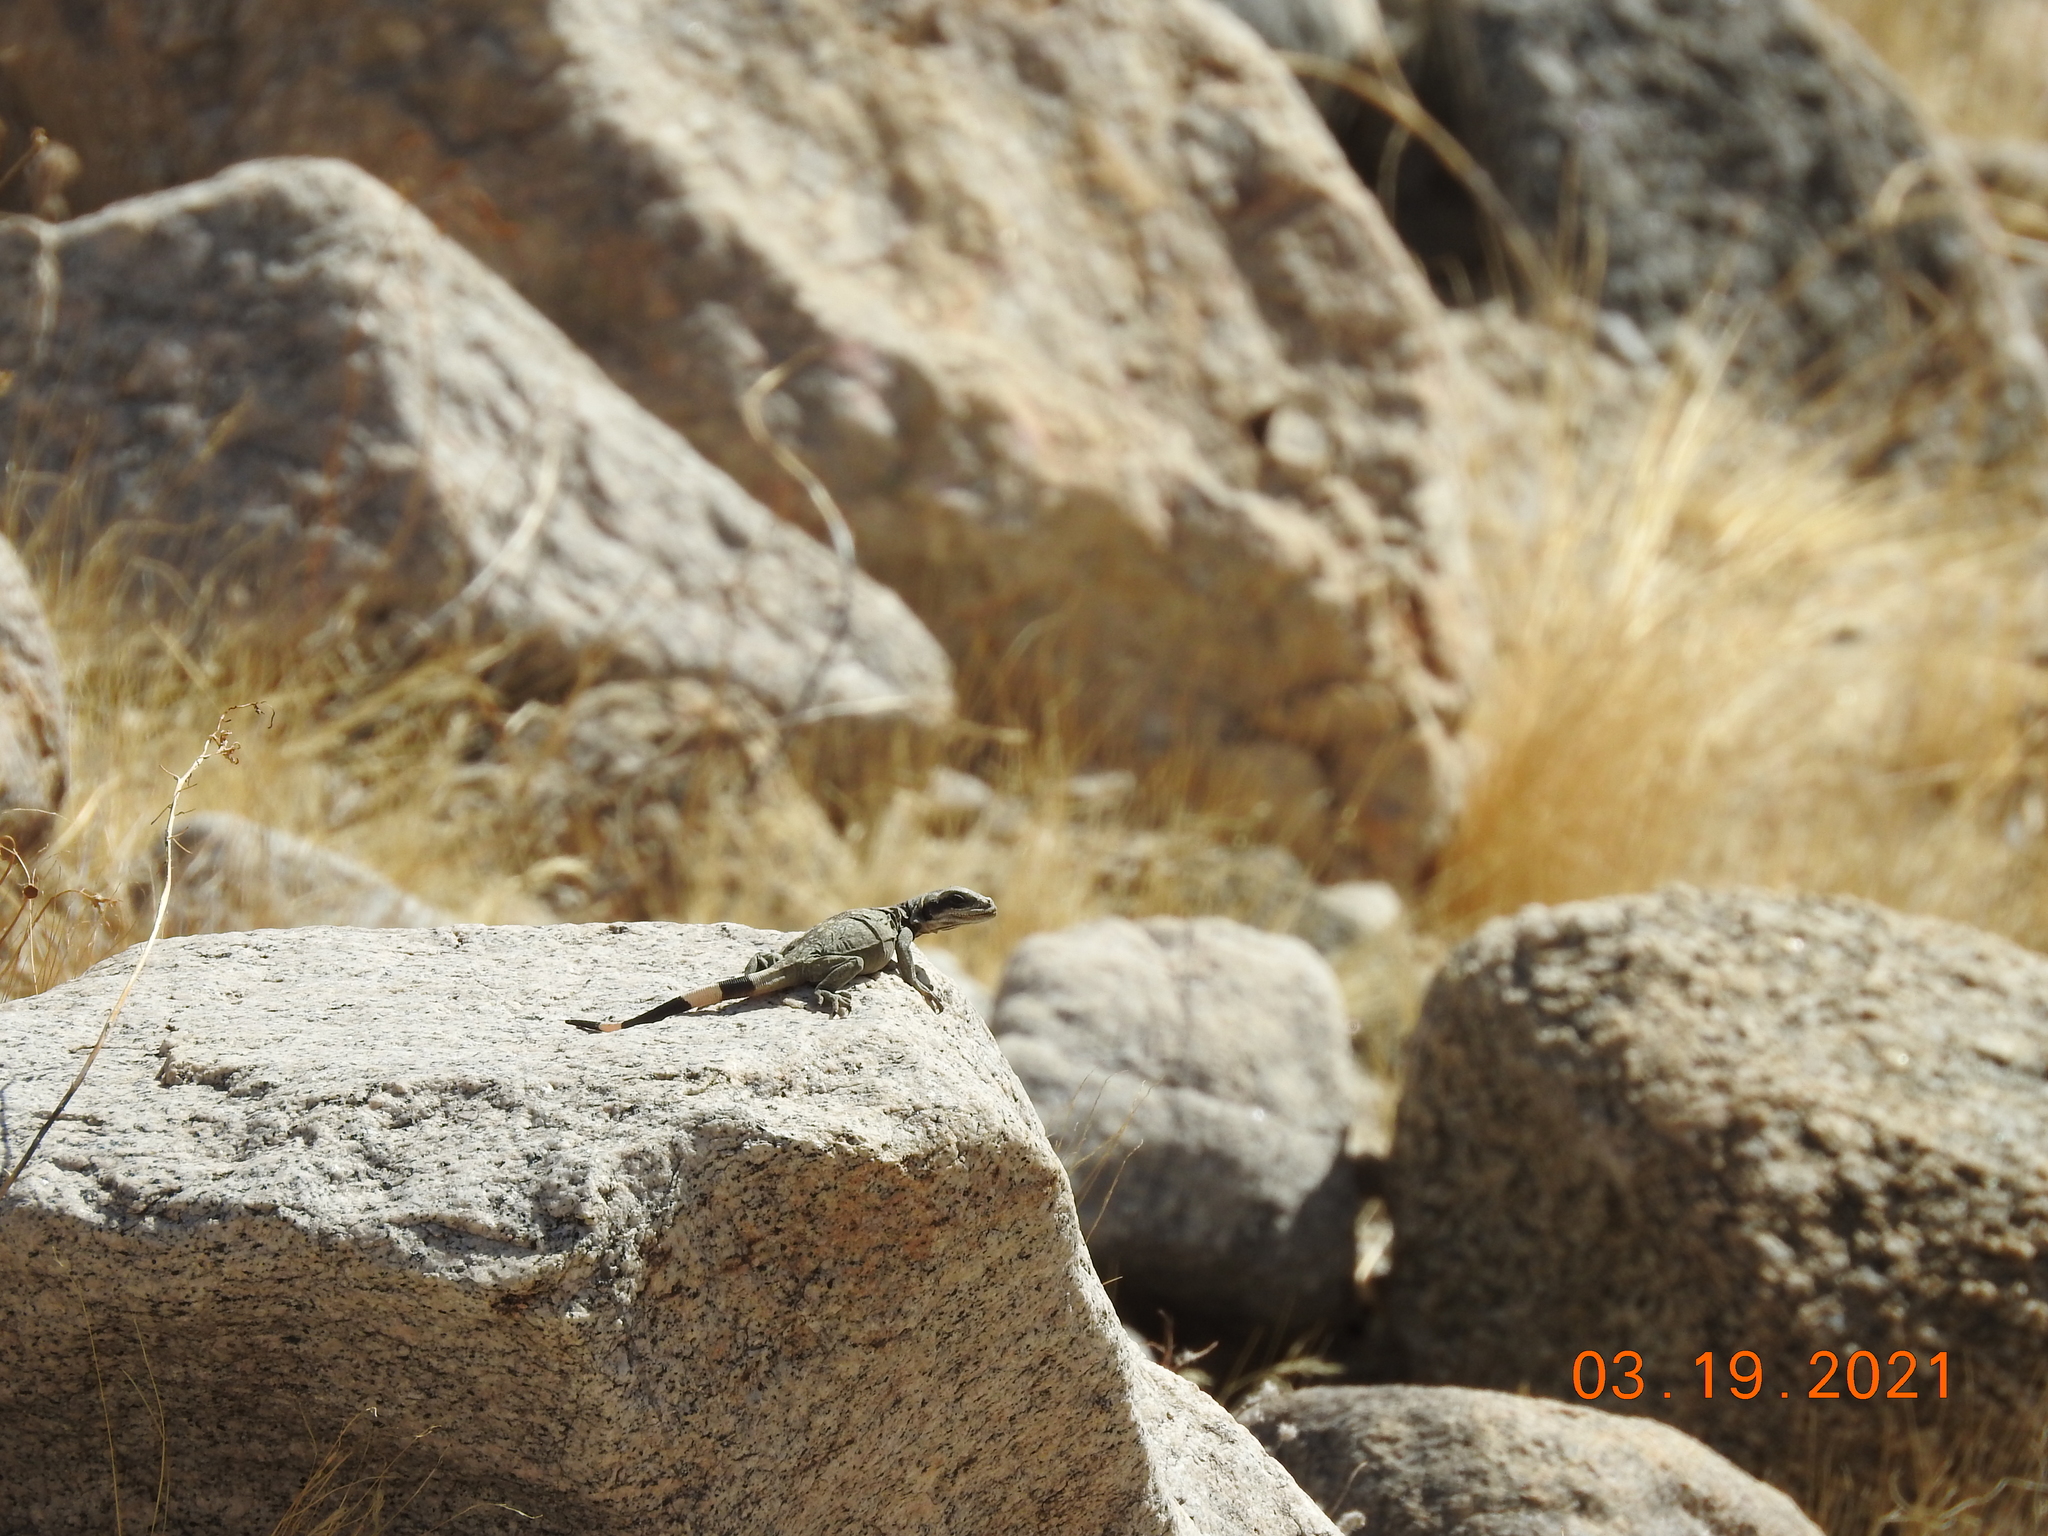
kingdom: Animalia
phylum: Chordata
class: Squamata
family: Iguanidae
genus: Sauromalus
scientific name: Sauromalus ater
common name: Northern chuckwalla
